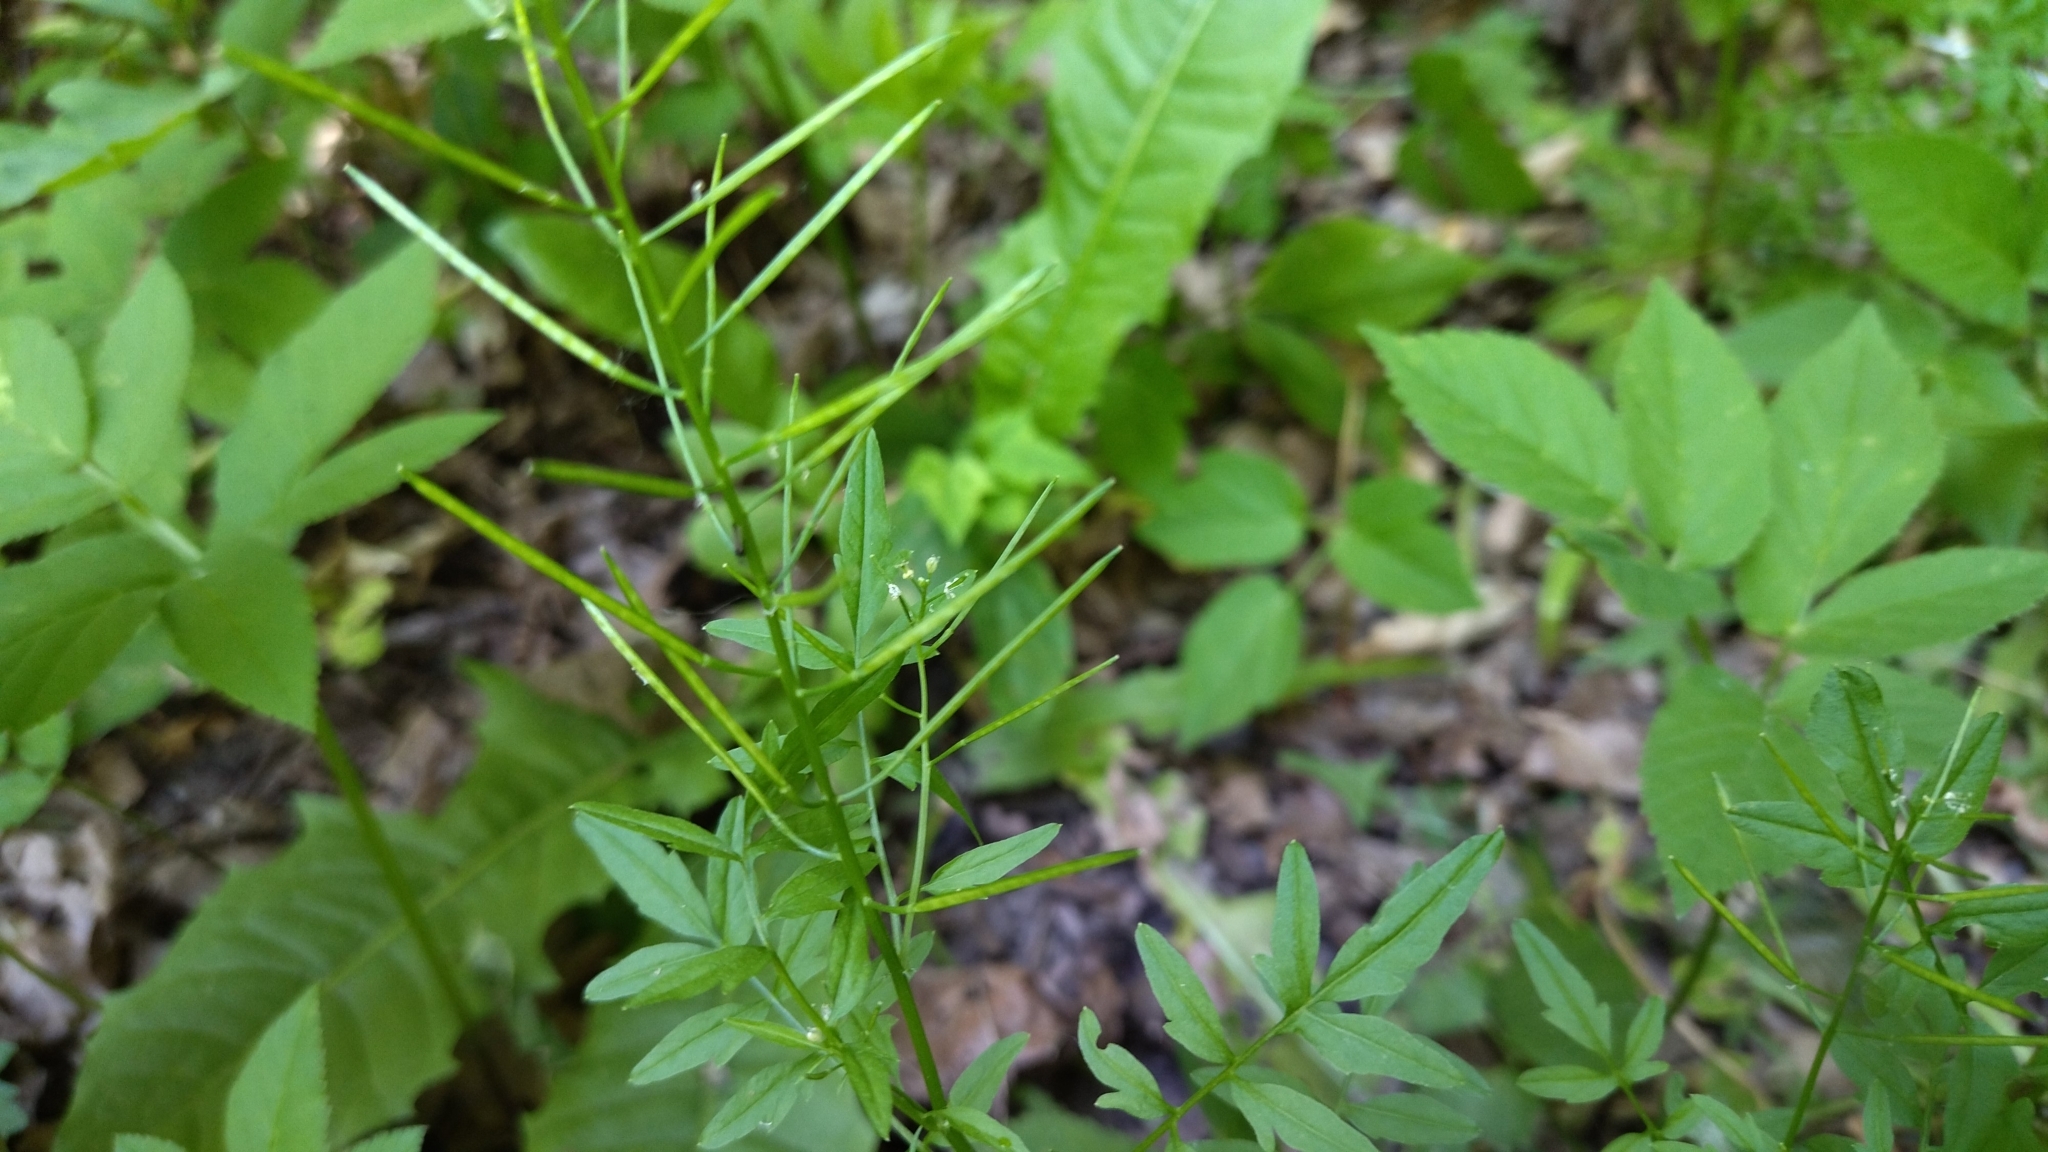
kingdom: Plantae
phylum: Tracheophyta
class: Magnoliopsida
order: Brassicales
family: Brassicaceae
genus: Cardamine
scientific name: Cardamine impatiens
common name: Narrow-leaved bitter-cress
